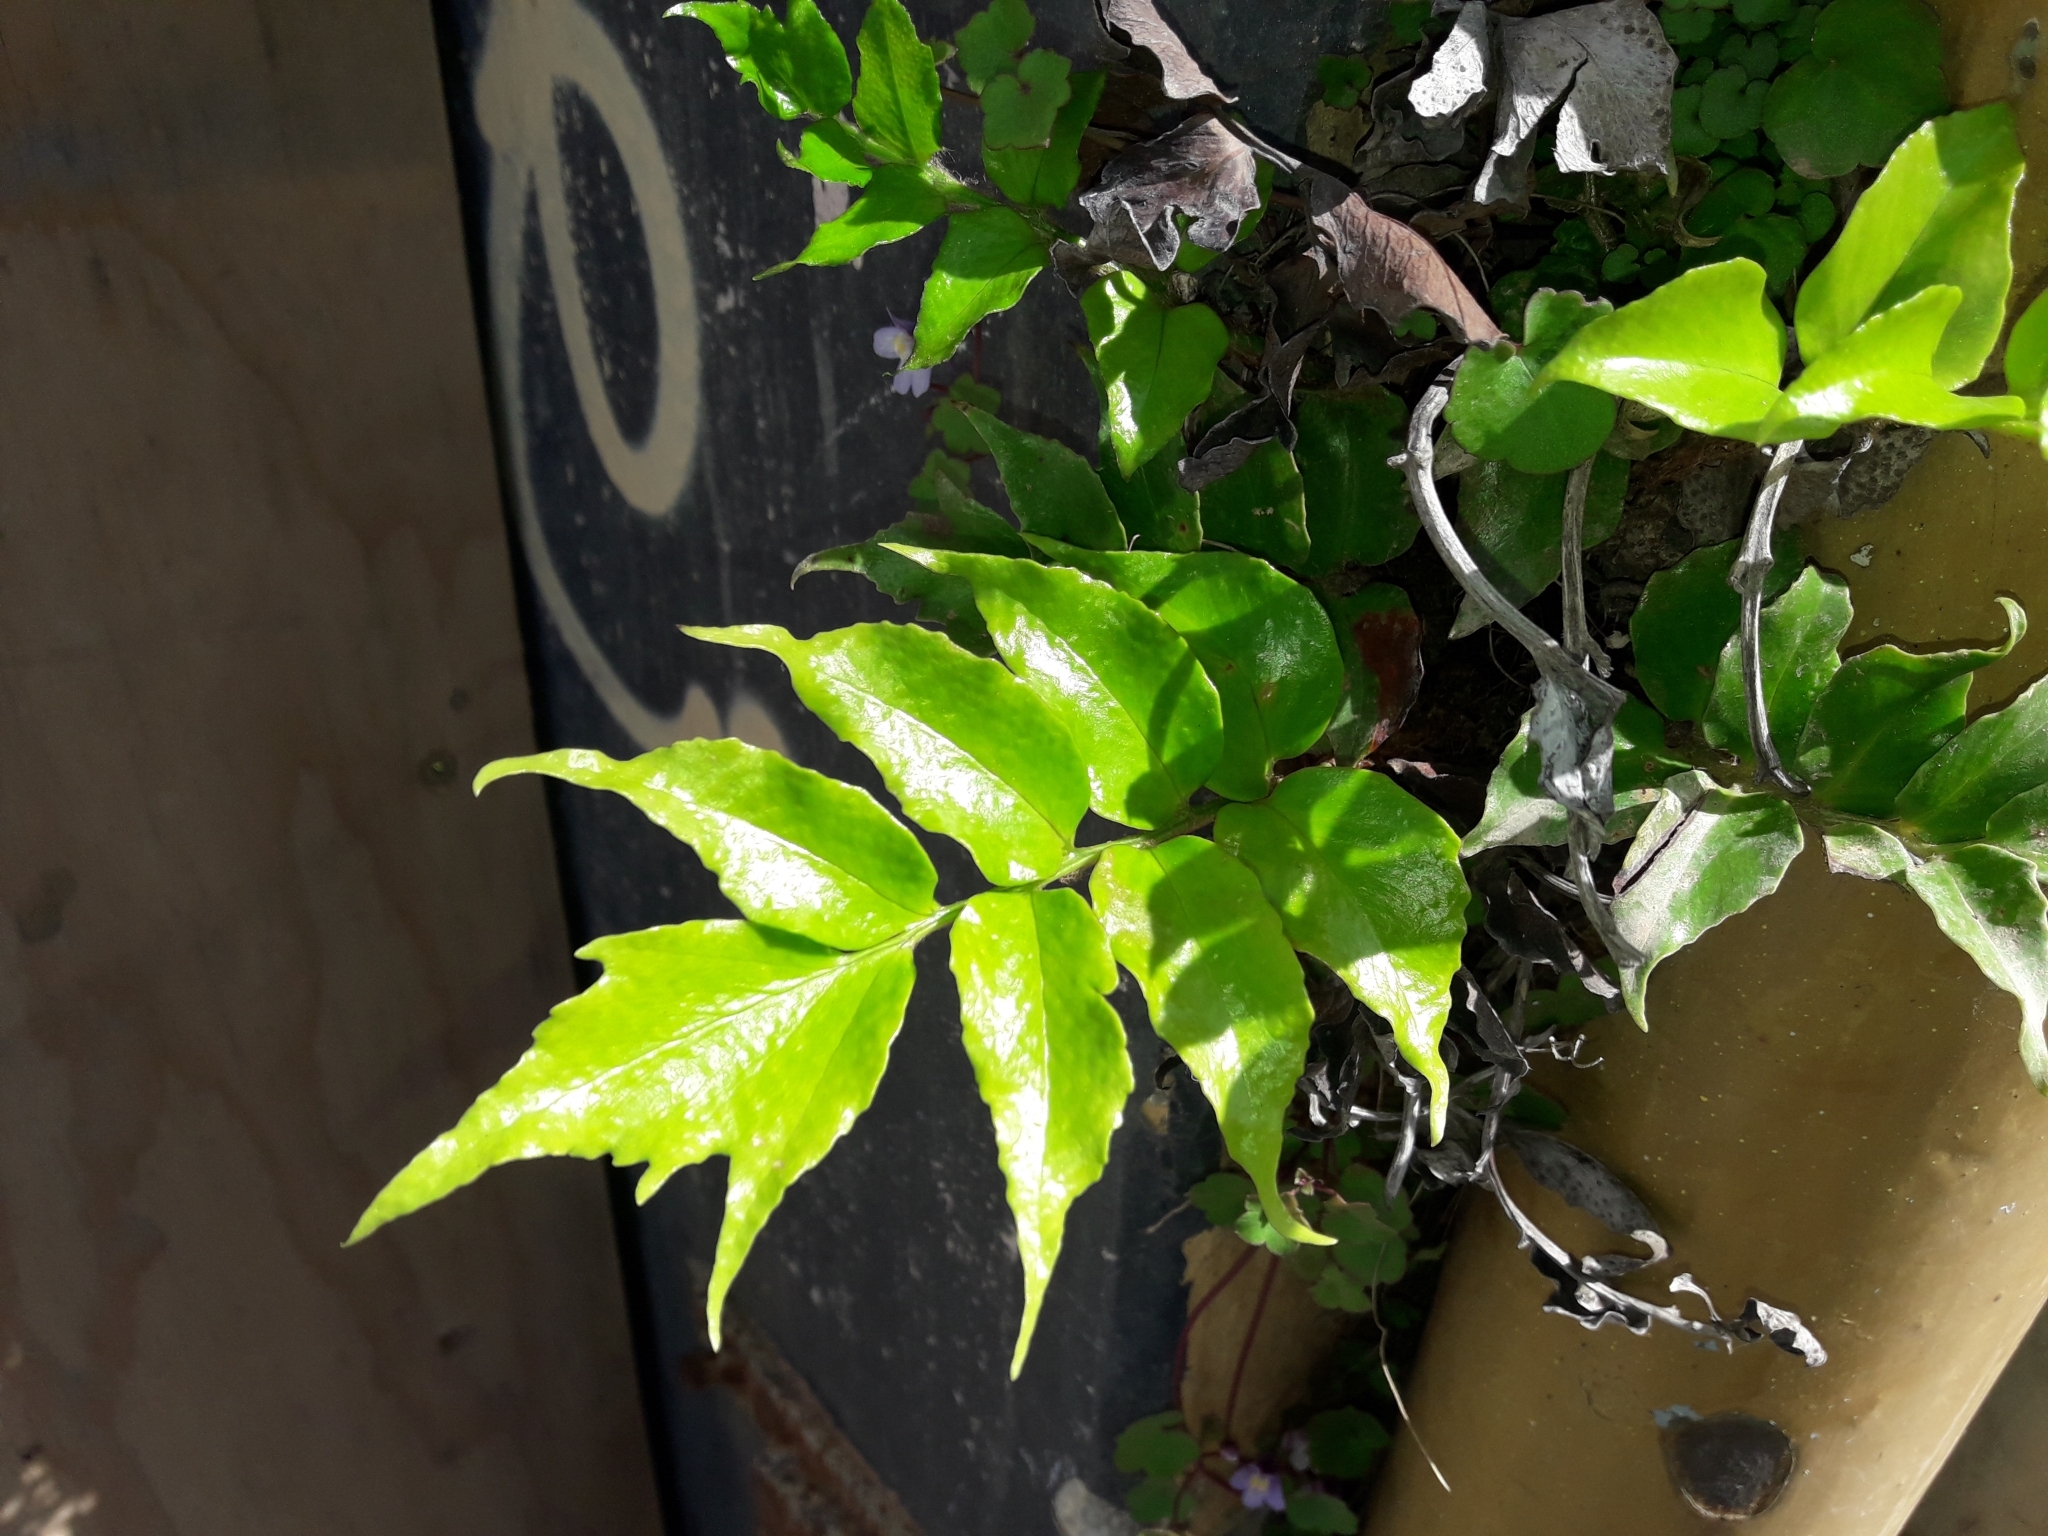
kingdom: Plantae
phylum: Tracheophyta
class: Polypodiopsida
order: Polypodiales
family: Dryopteridaceae
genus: Cyrtomium
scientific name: Cyrtomium falcatum
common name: House holly-fern
